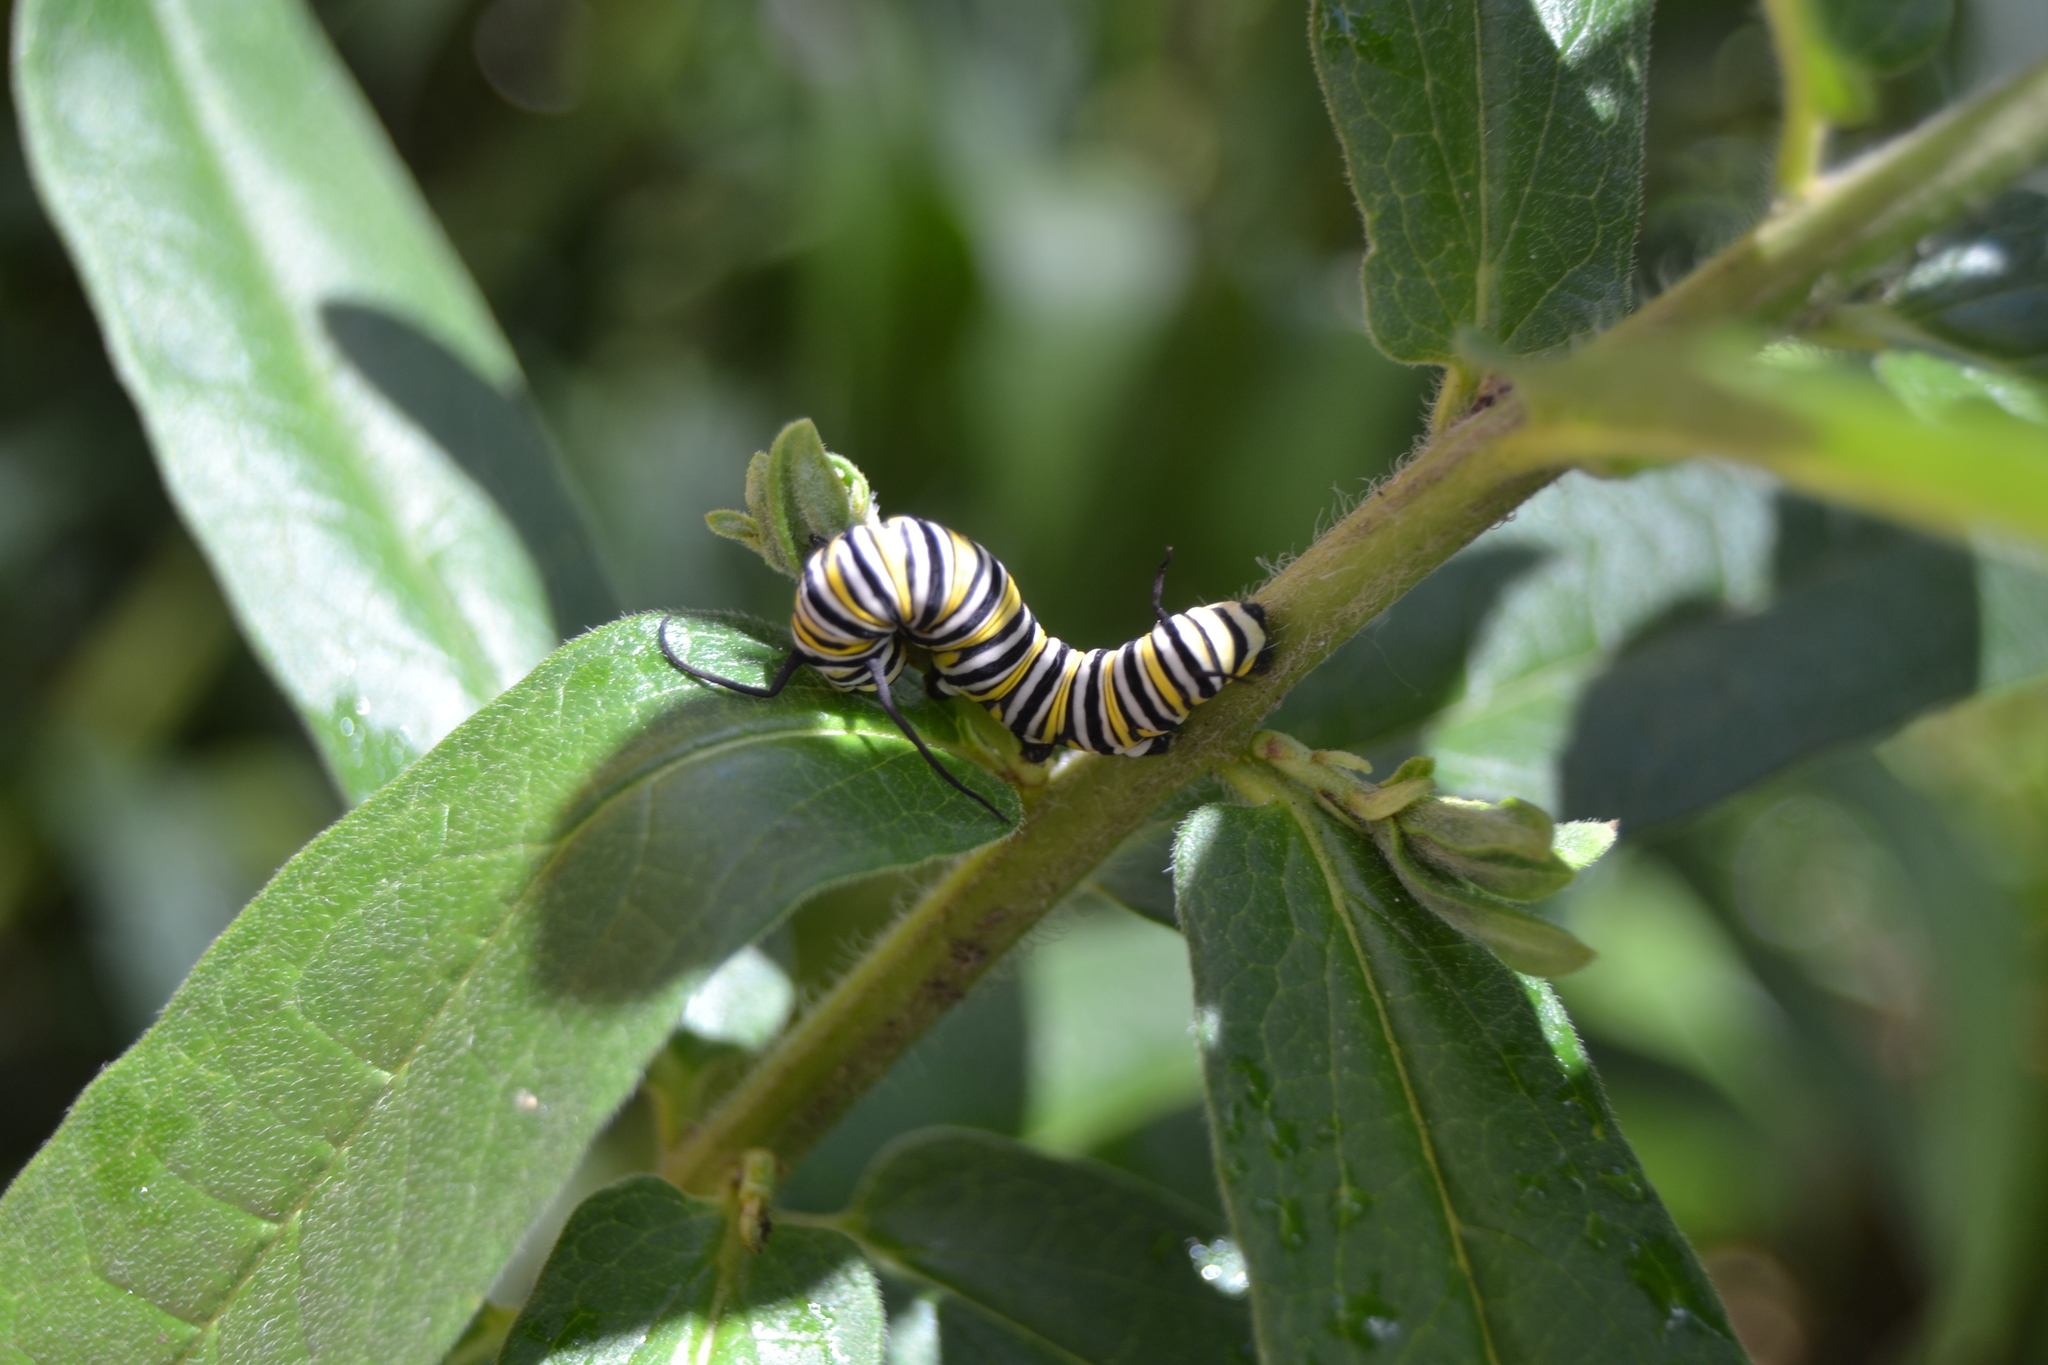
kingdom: Animalia
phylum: Arthropoda
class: Insecta
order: Lepidoptera
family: Nymphalidae
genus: Danaus
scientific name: Danaus plexippus
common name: Monarch
